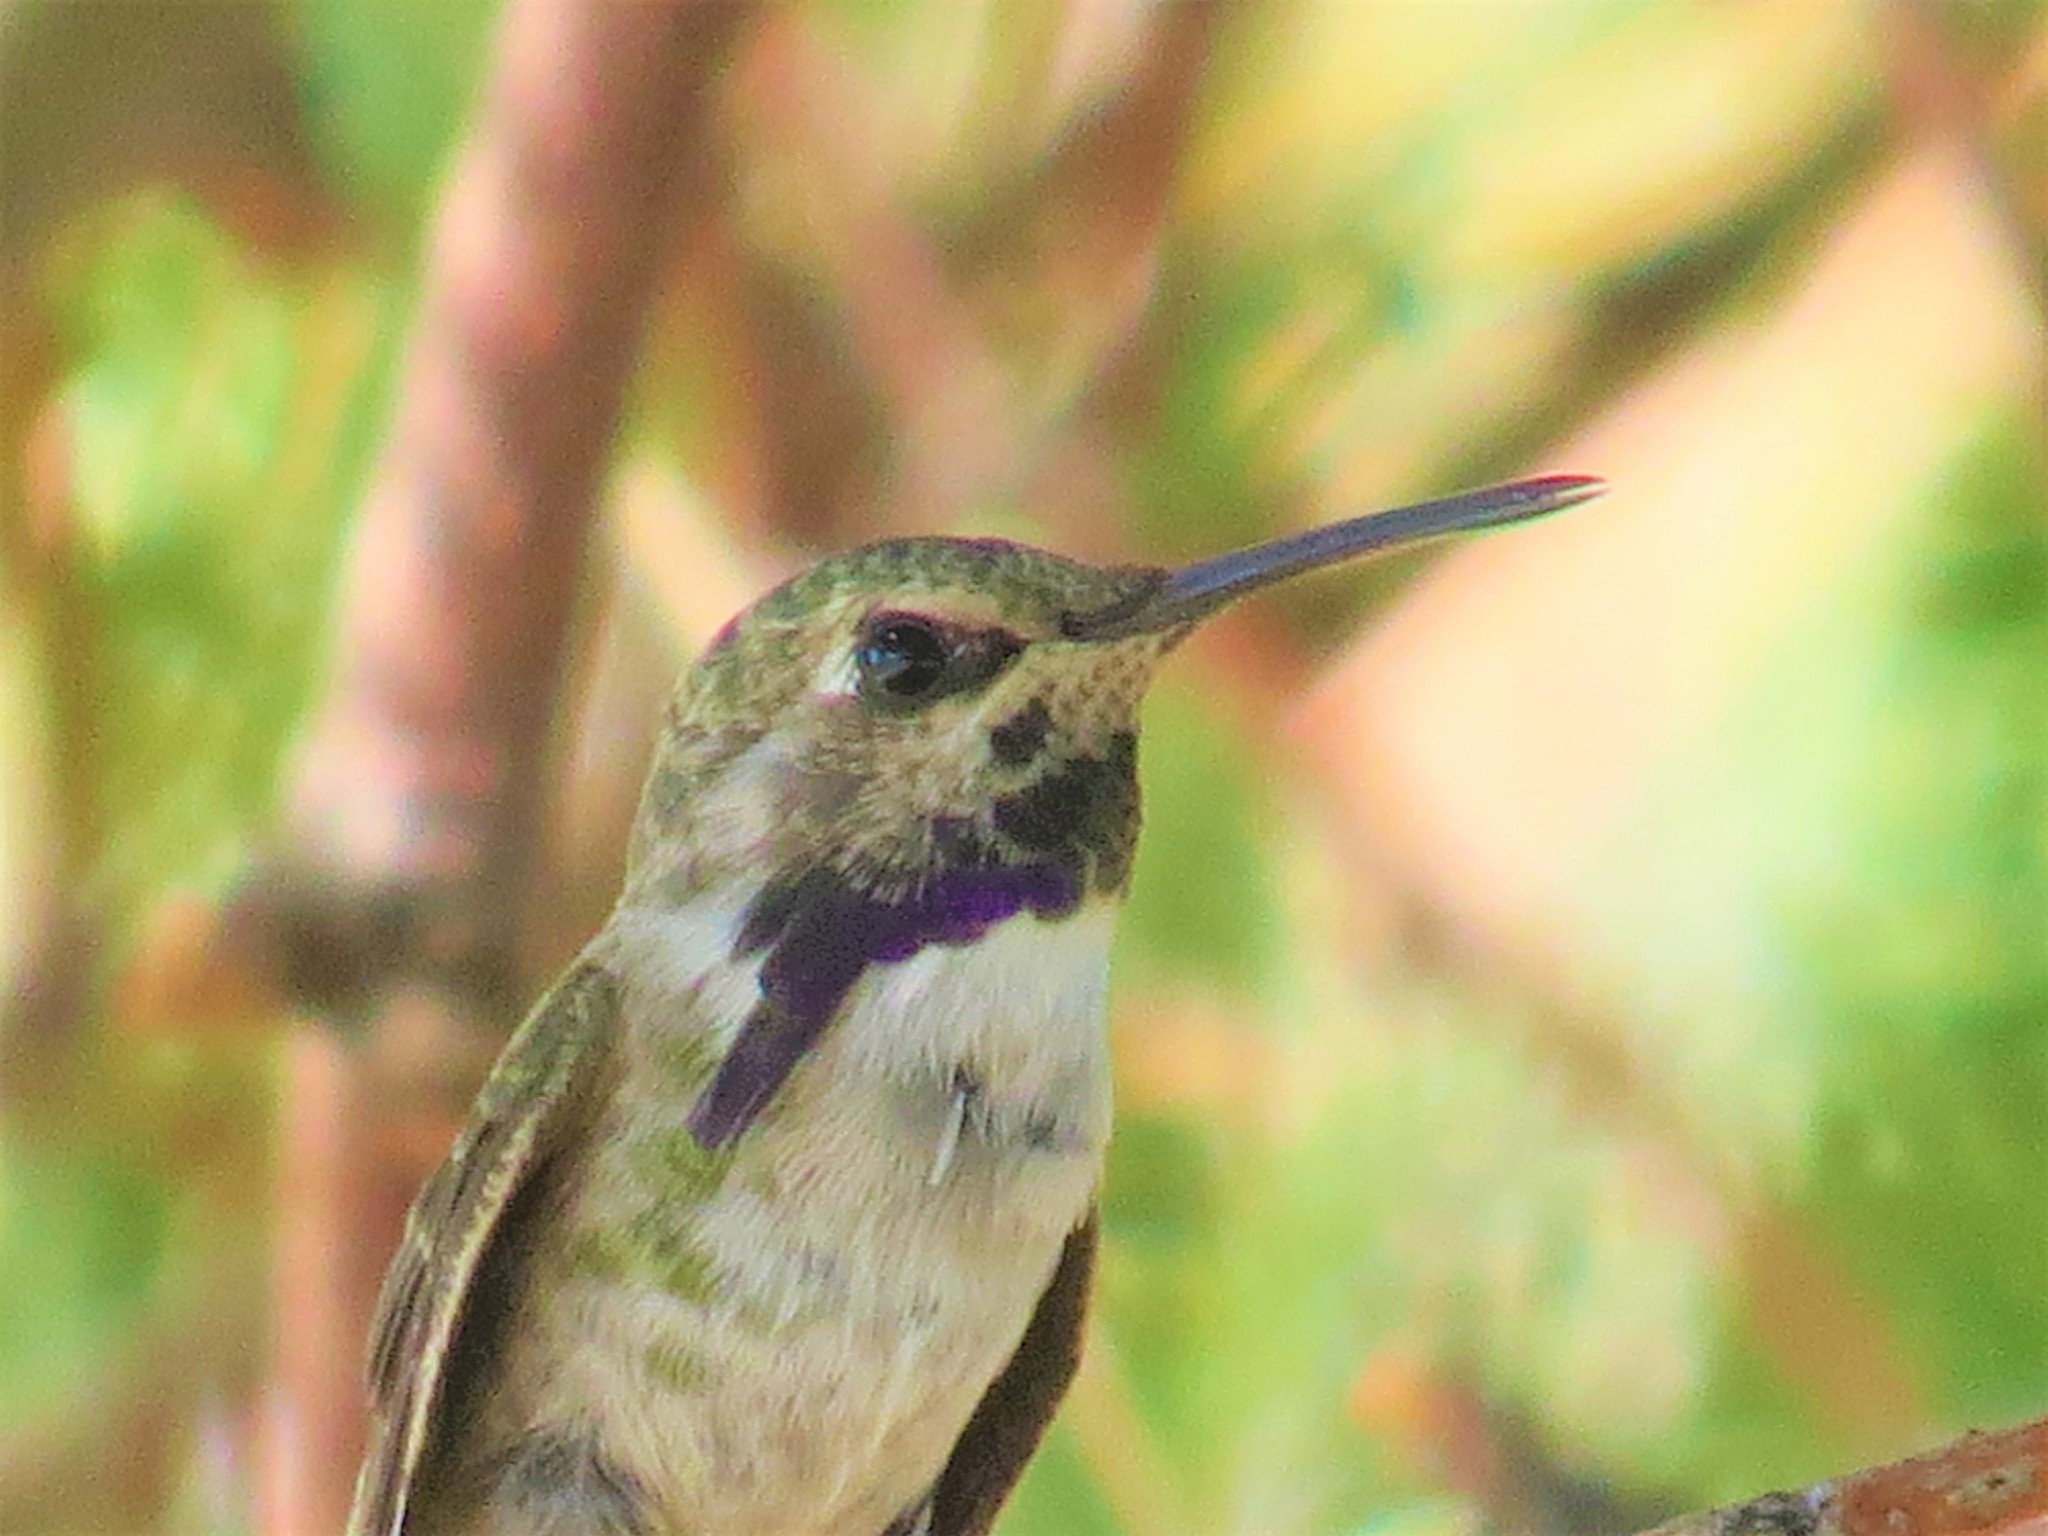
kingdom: Animalia
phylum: Chordata
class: Aves
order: Apodiformes
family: Trochilidae
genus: Calypte
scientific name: Calypte costae
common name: Costa's hummingbird
